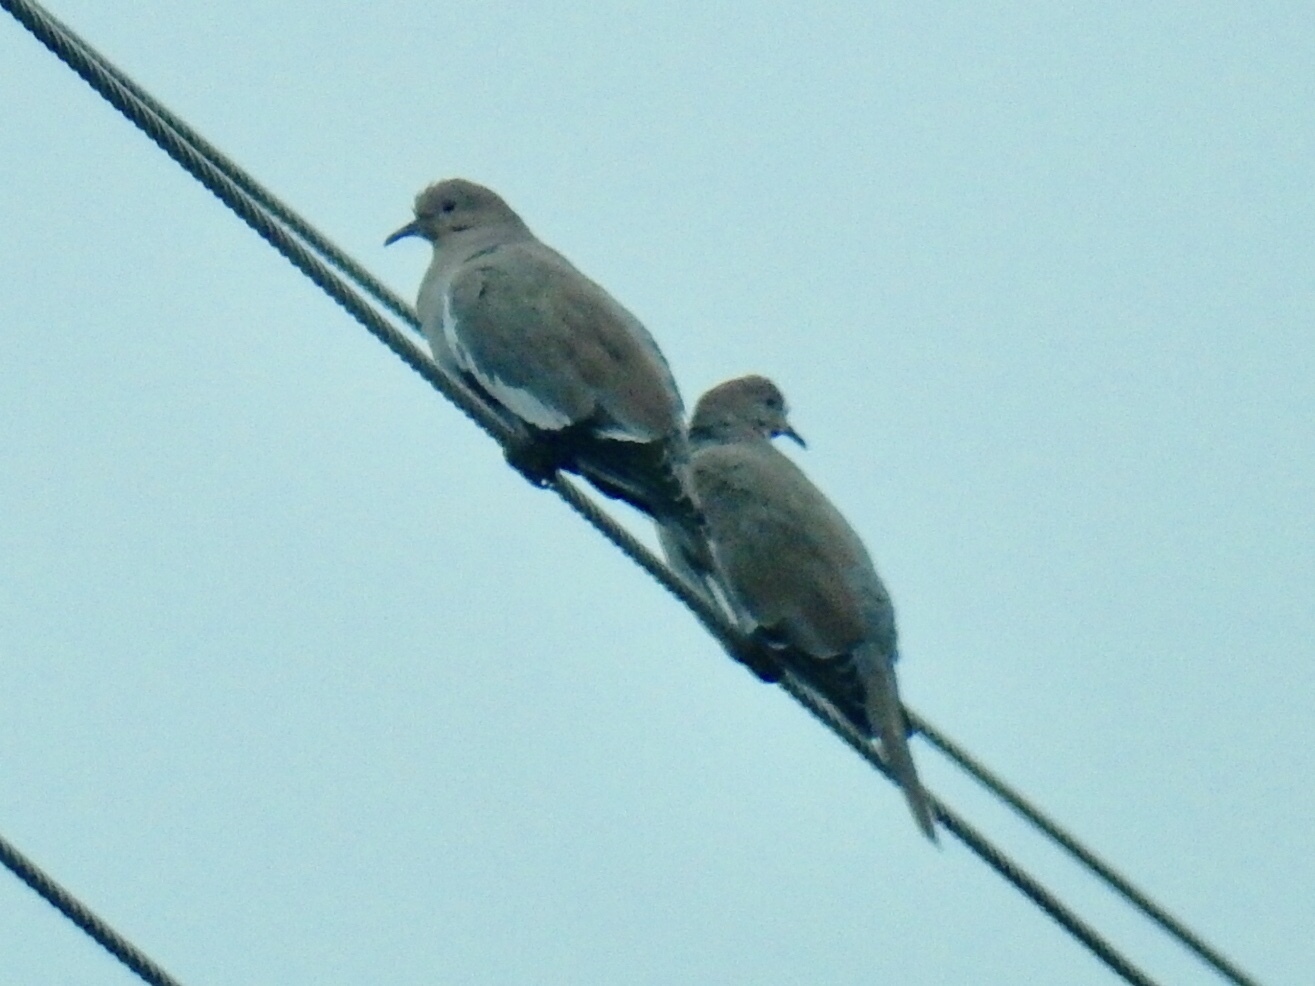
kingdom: Animalia
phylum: Chordata
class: Aves
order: Columbiformes
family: Columbidae
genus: Zenaida
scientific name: Zenaida asiatica
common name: White-winged dove
